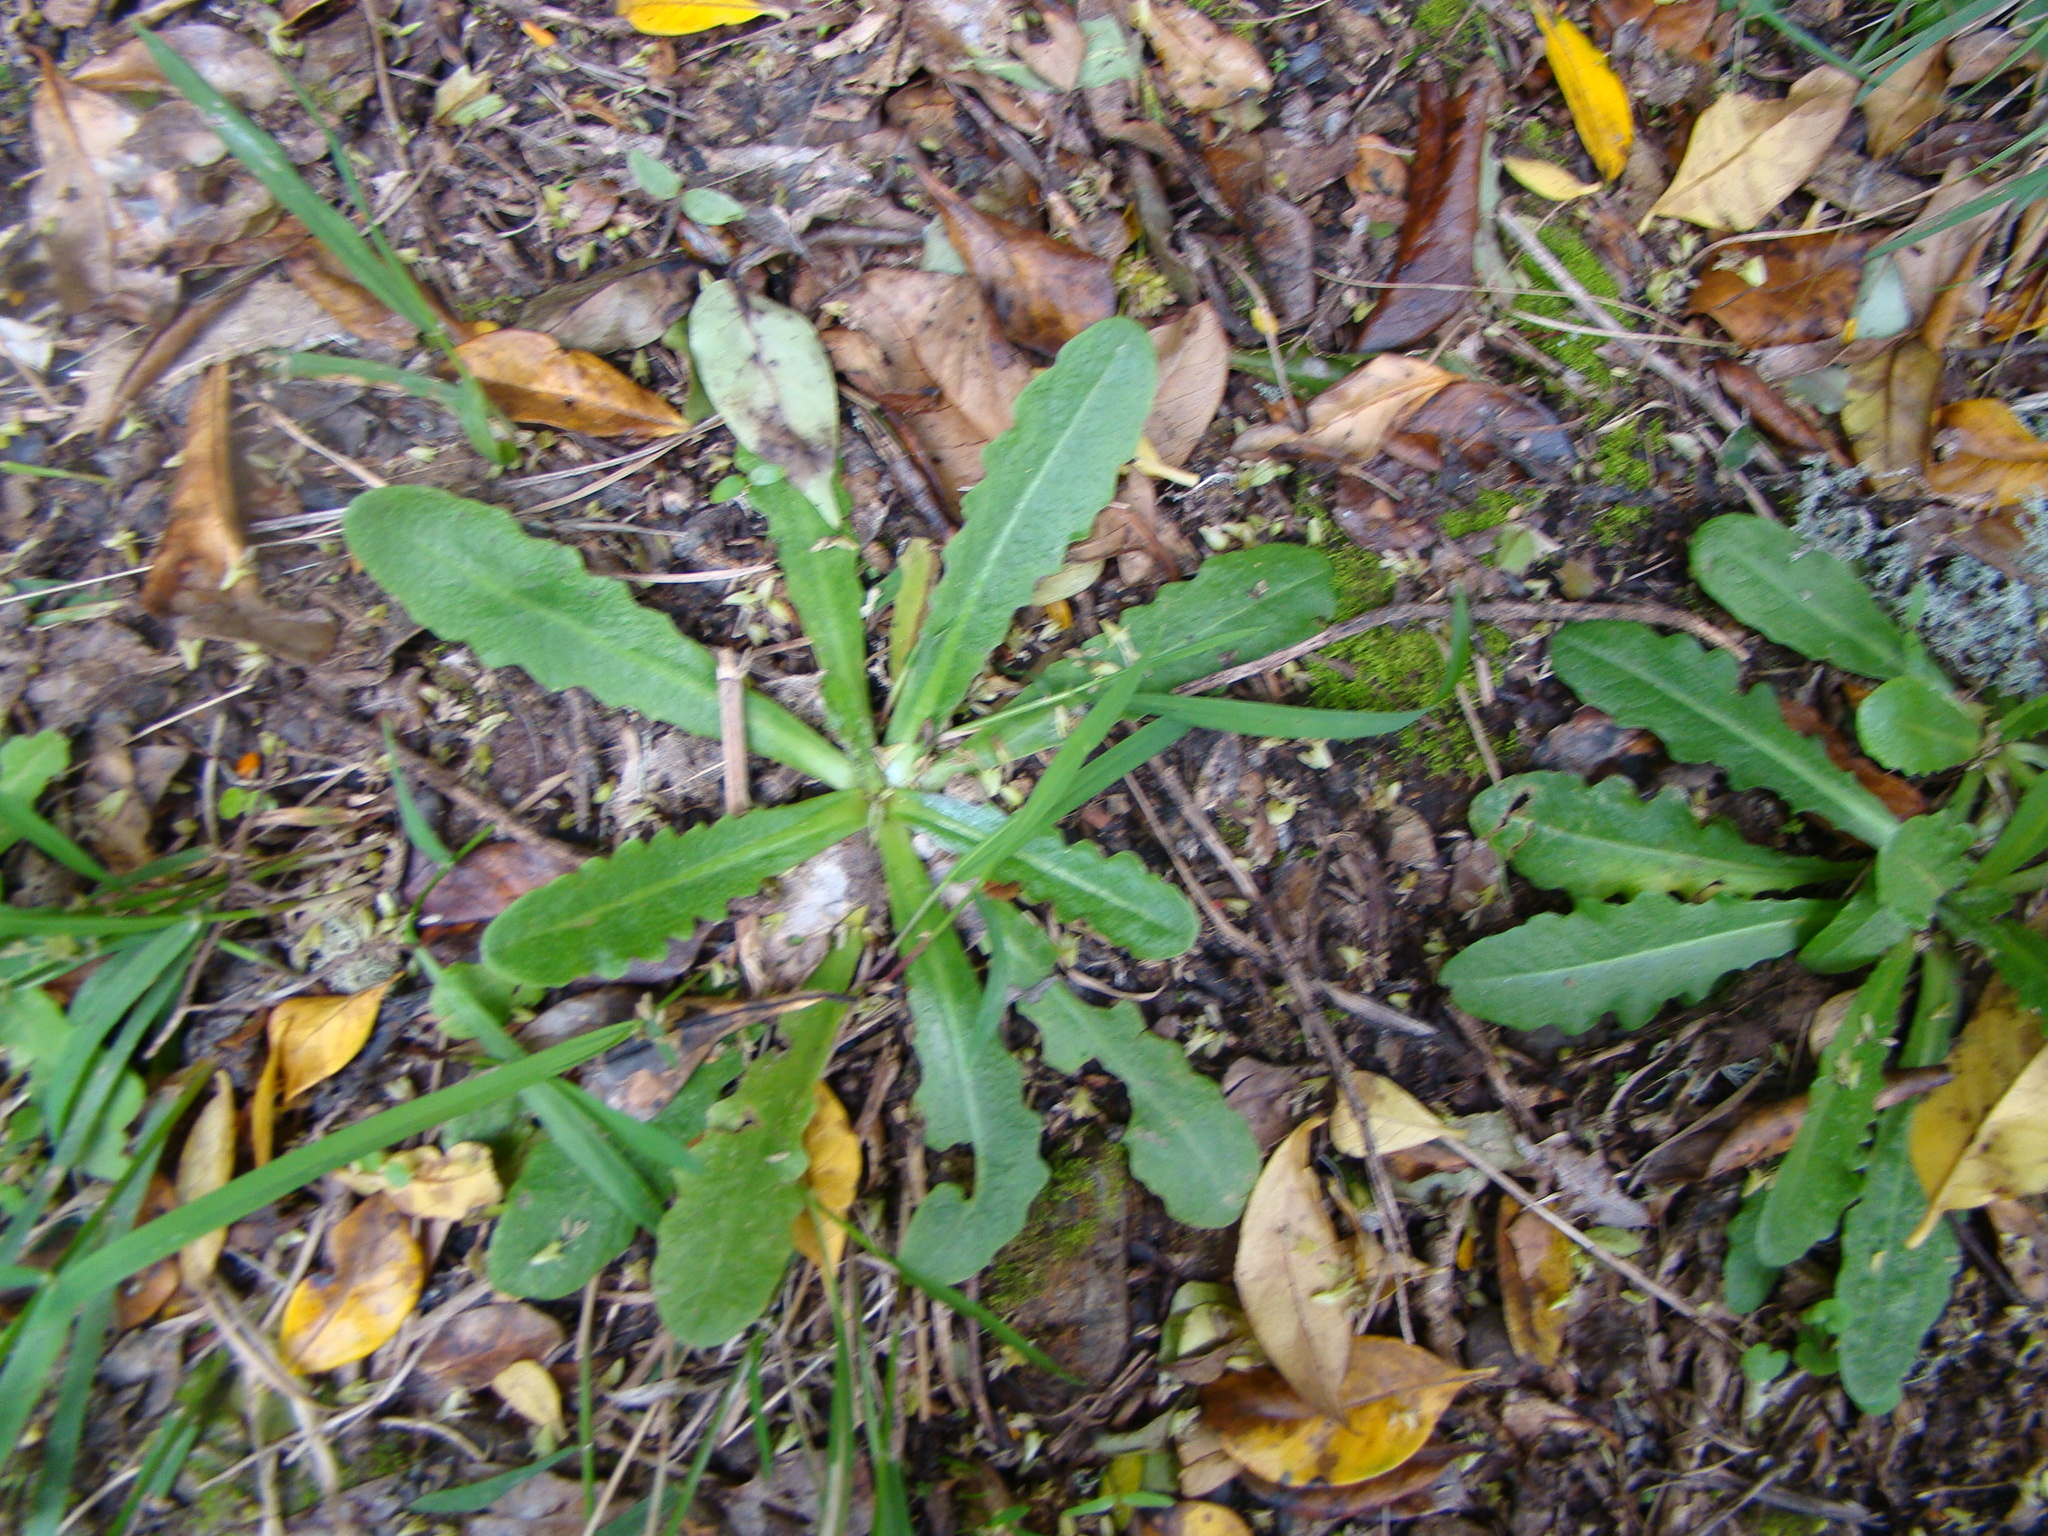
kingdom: Plantae
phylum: Tracheophyta
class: Magnoliopsida
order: Asterales
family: Asteraceae
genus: Hypochaeris
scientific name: Hypochaeris radicata
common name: Flatweed
